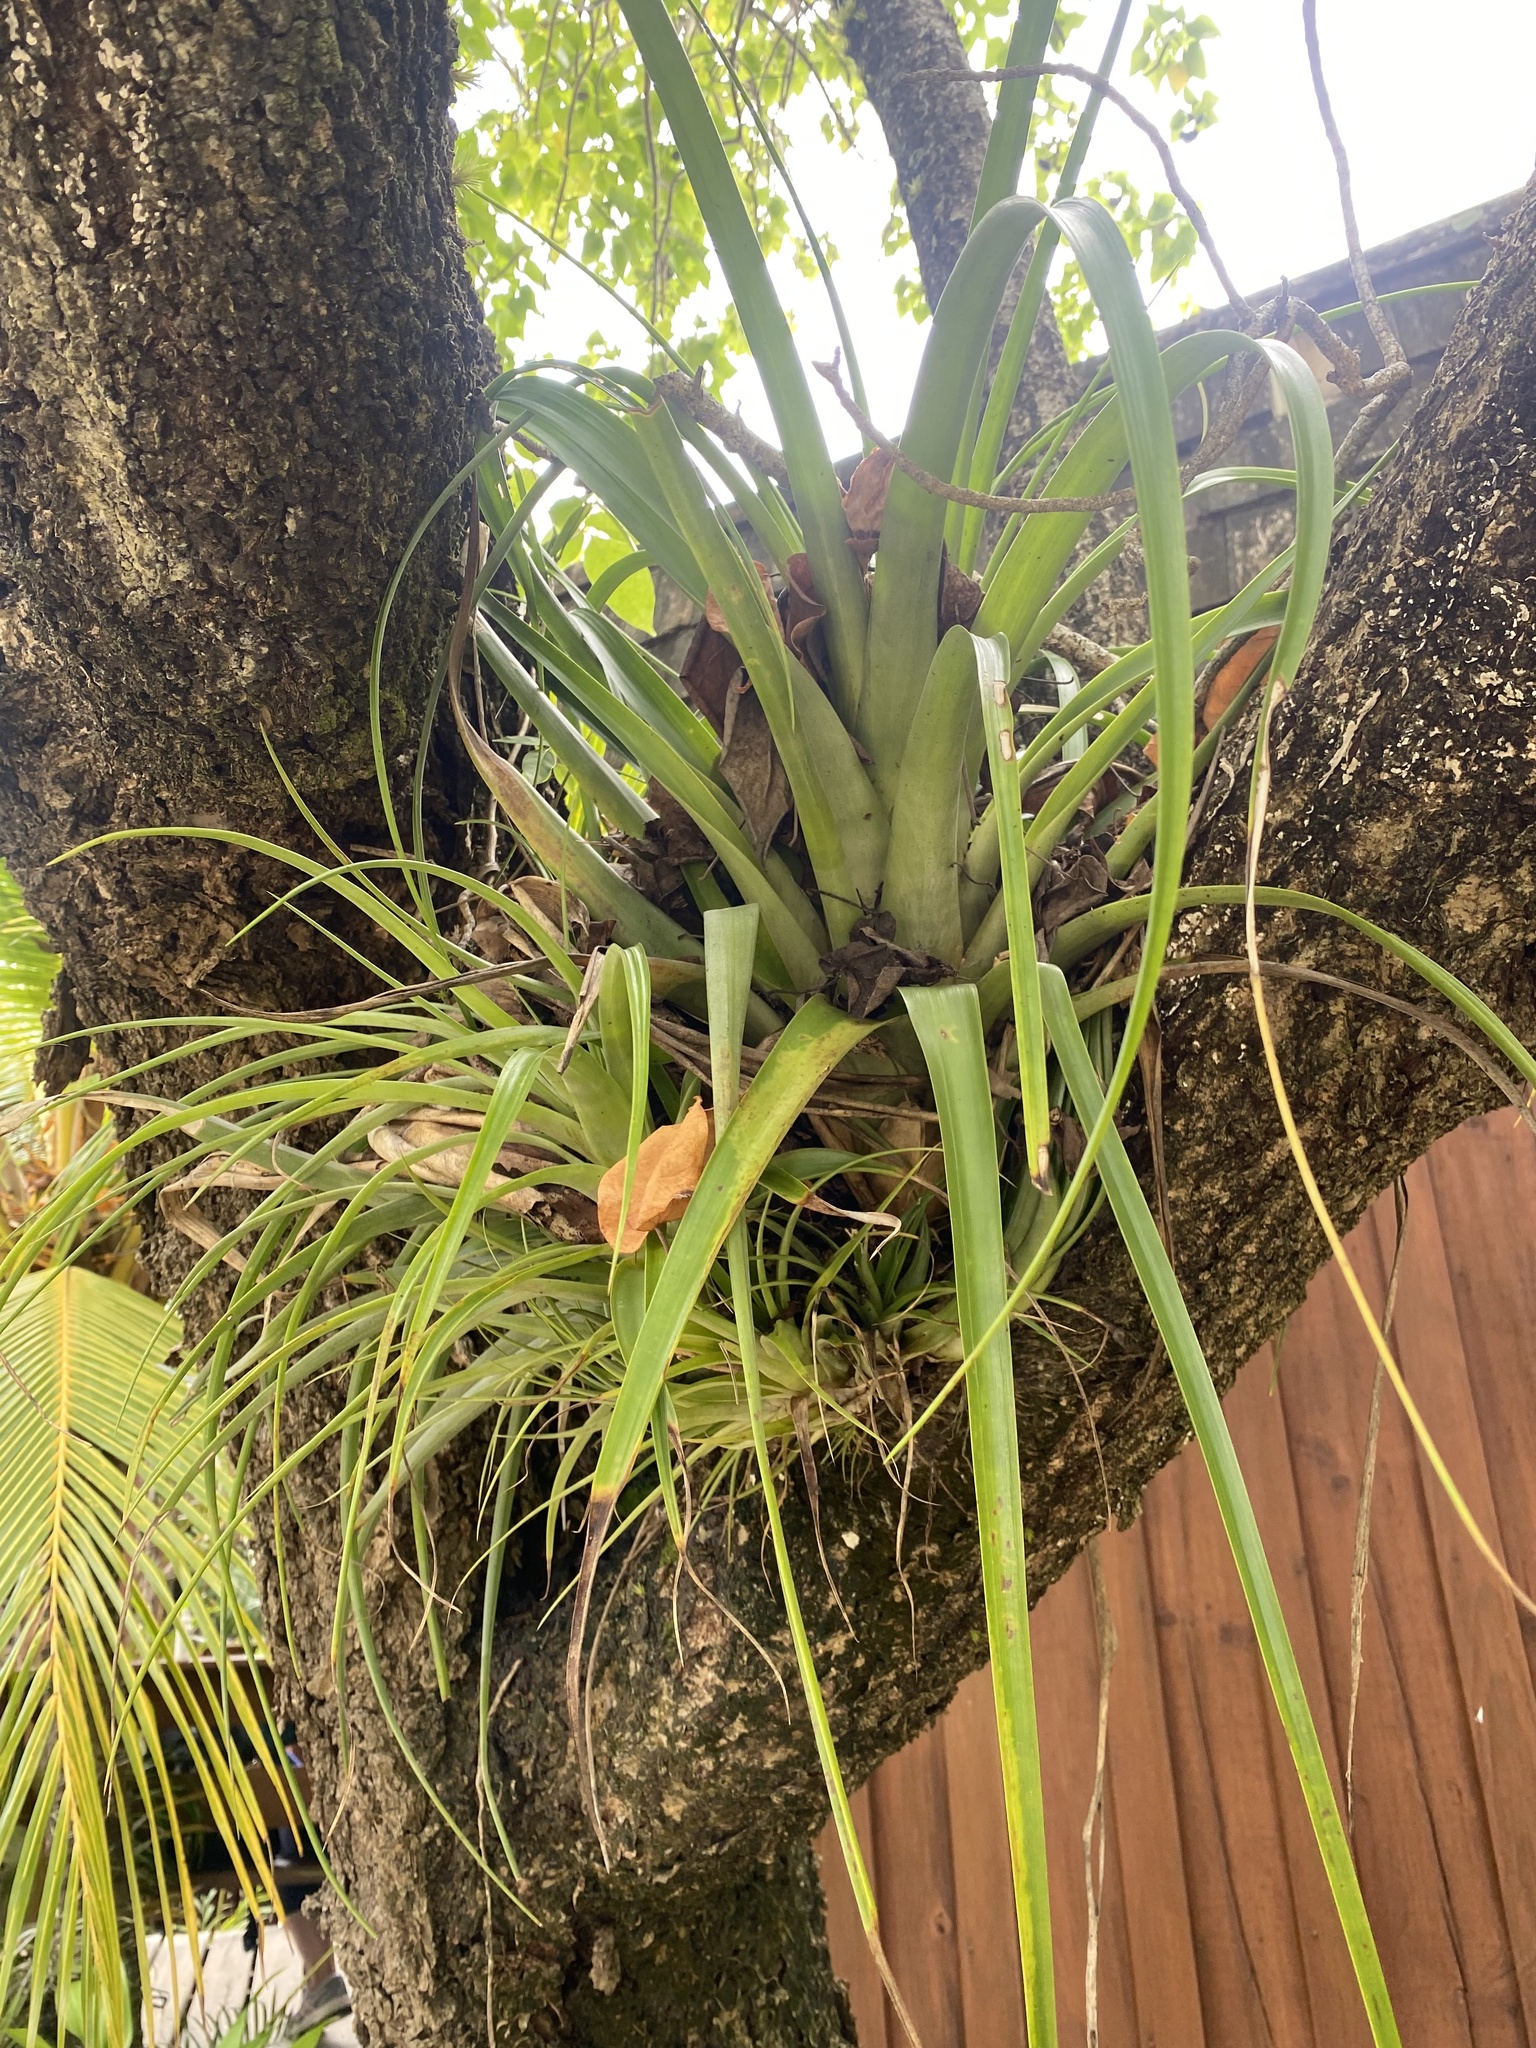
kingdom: Plantae
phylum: Tracheophyta
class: Liliopsida
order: Poales
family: Bromeliaceae
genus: Tillandsia
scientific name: Tillandsia utriculata
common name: Wild pine
